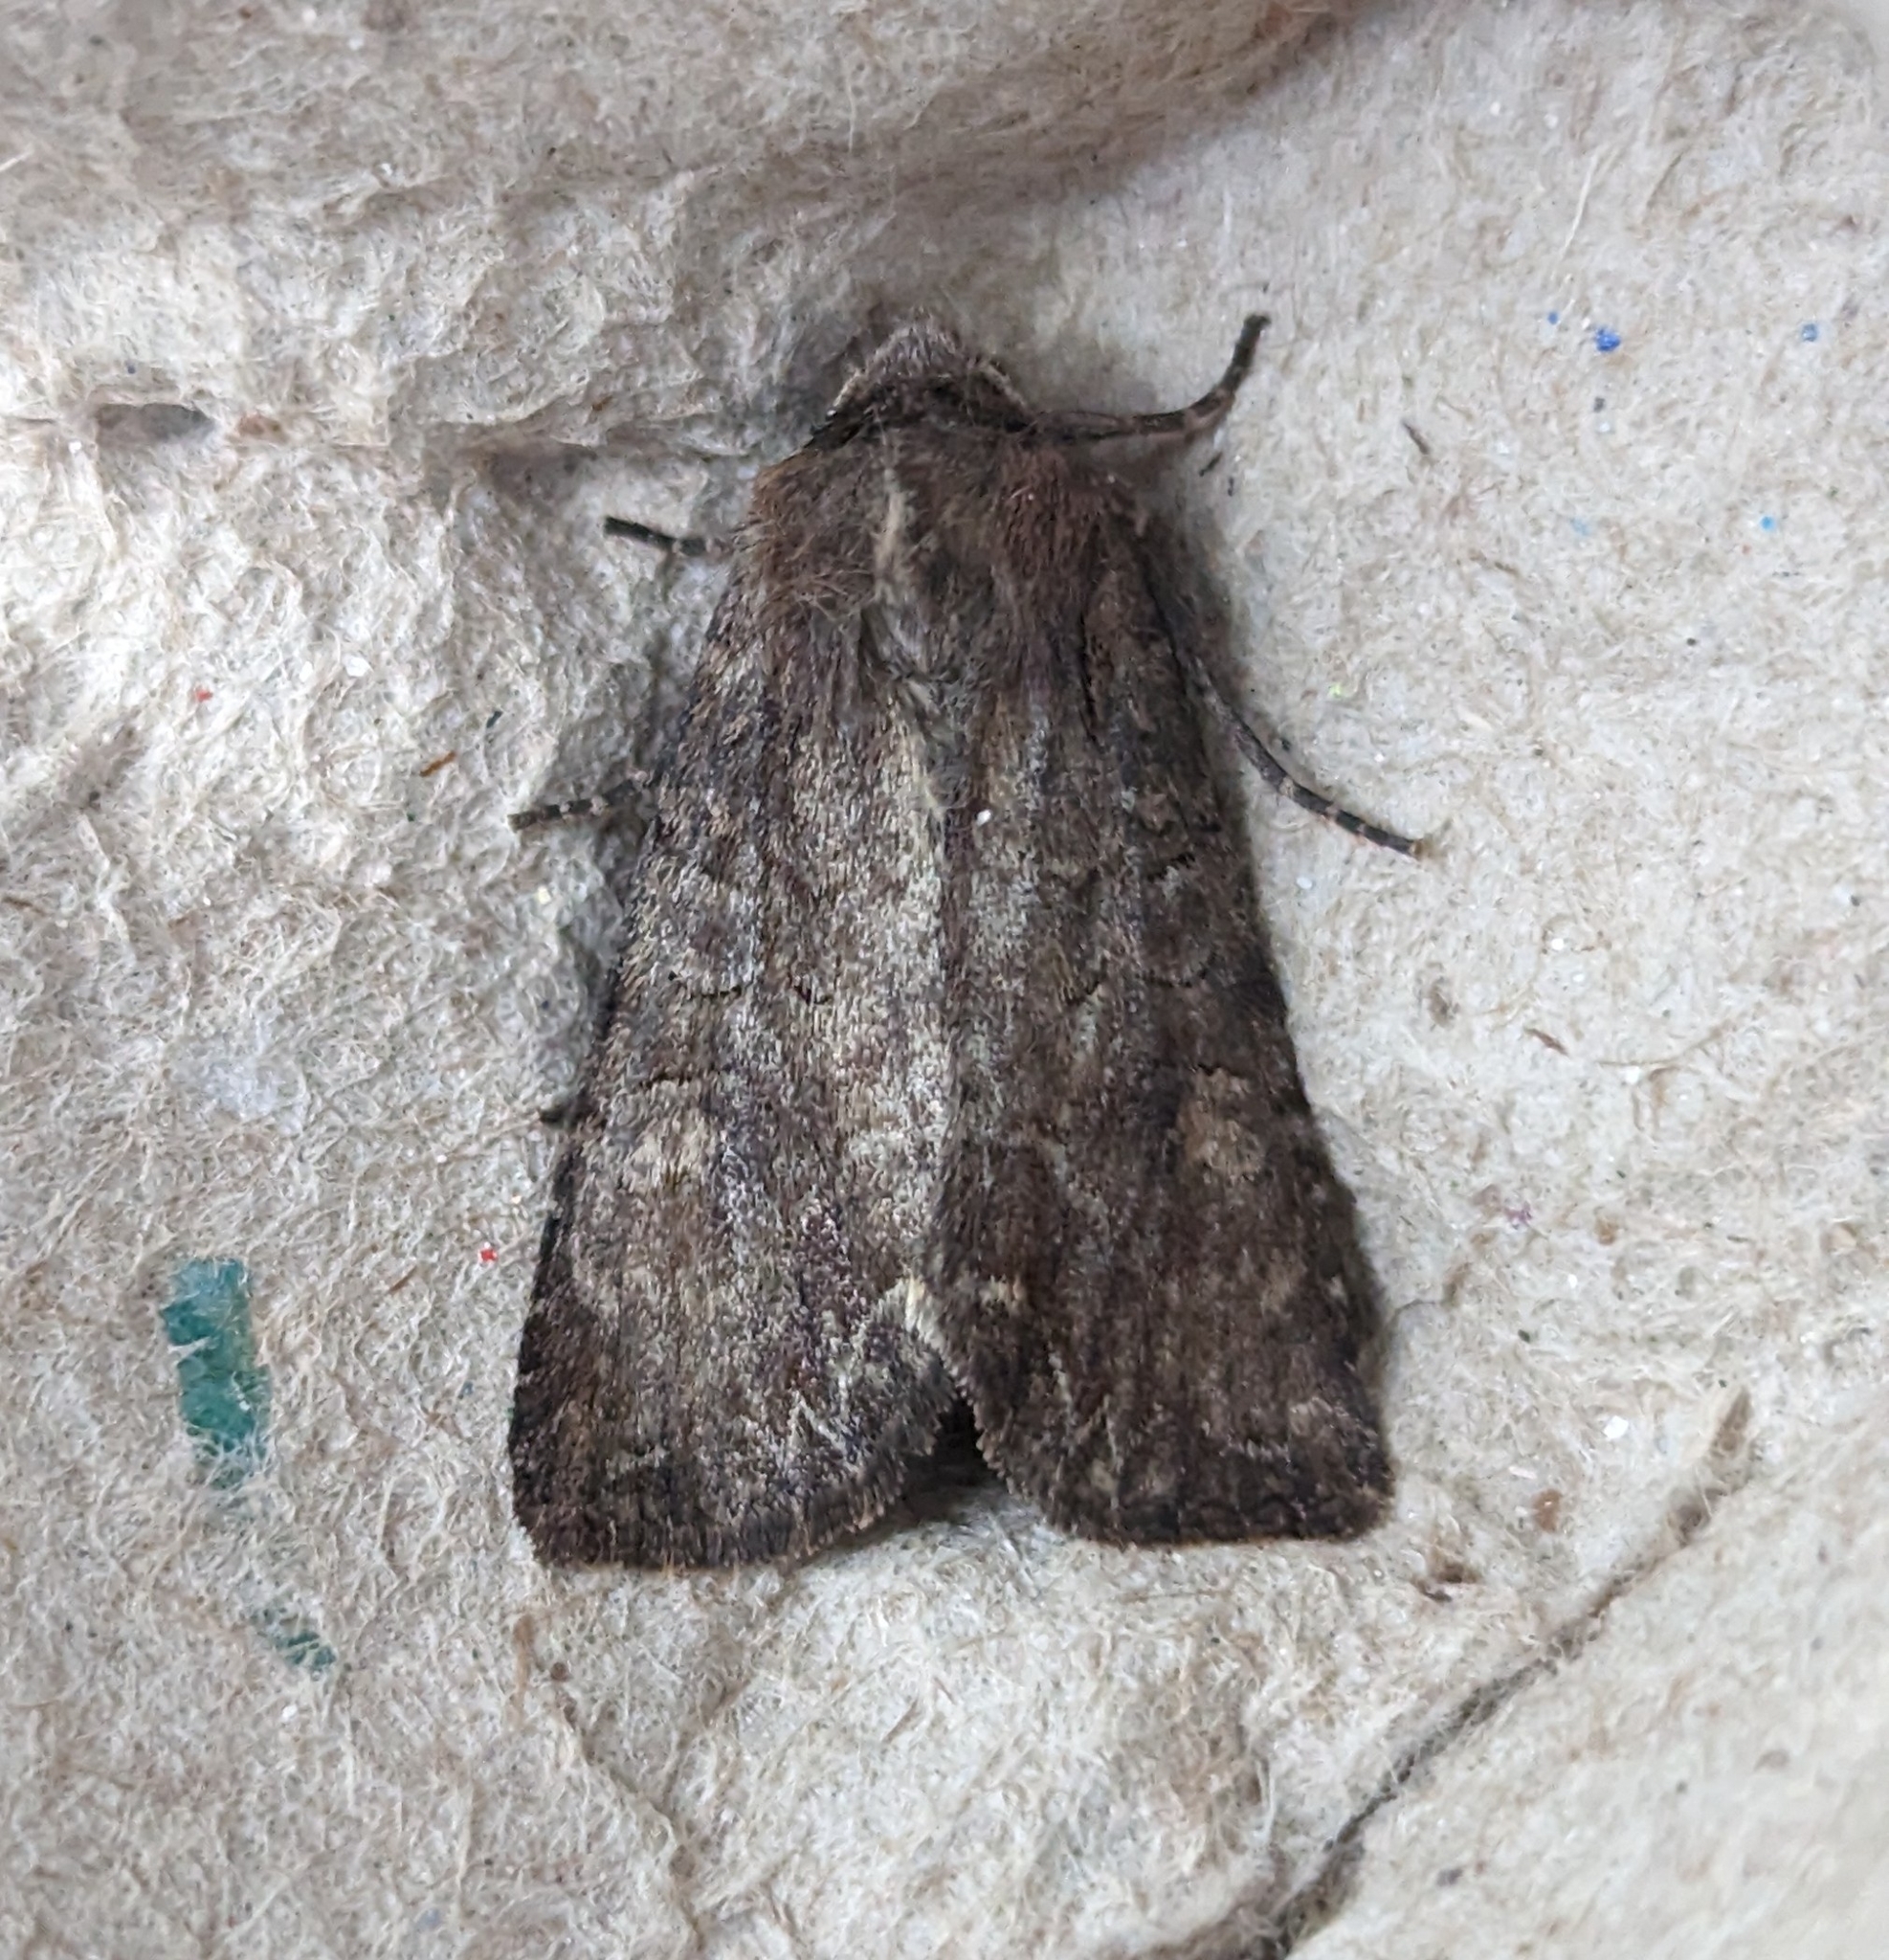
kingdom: Animalia
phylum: Arthropoda
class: Insecta
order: Lepidoptera
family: Noctuidae
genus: Lacanobia
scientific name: Lacanobia radix
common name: Garden arches moth
